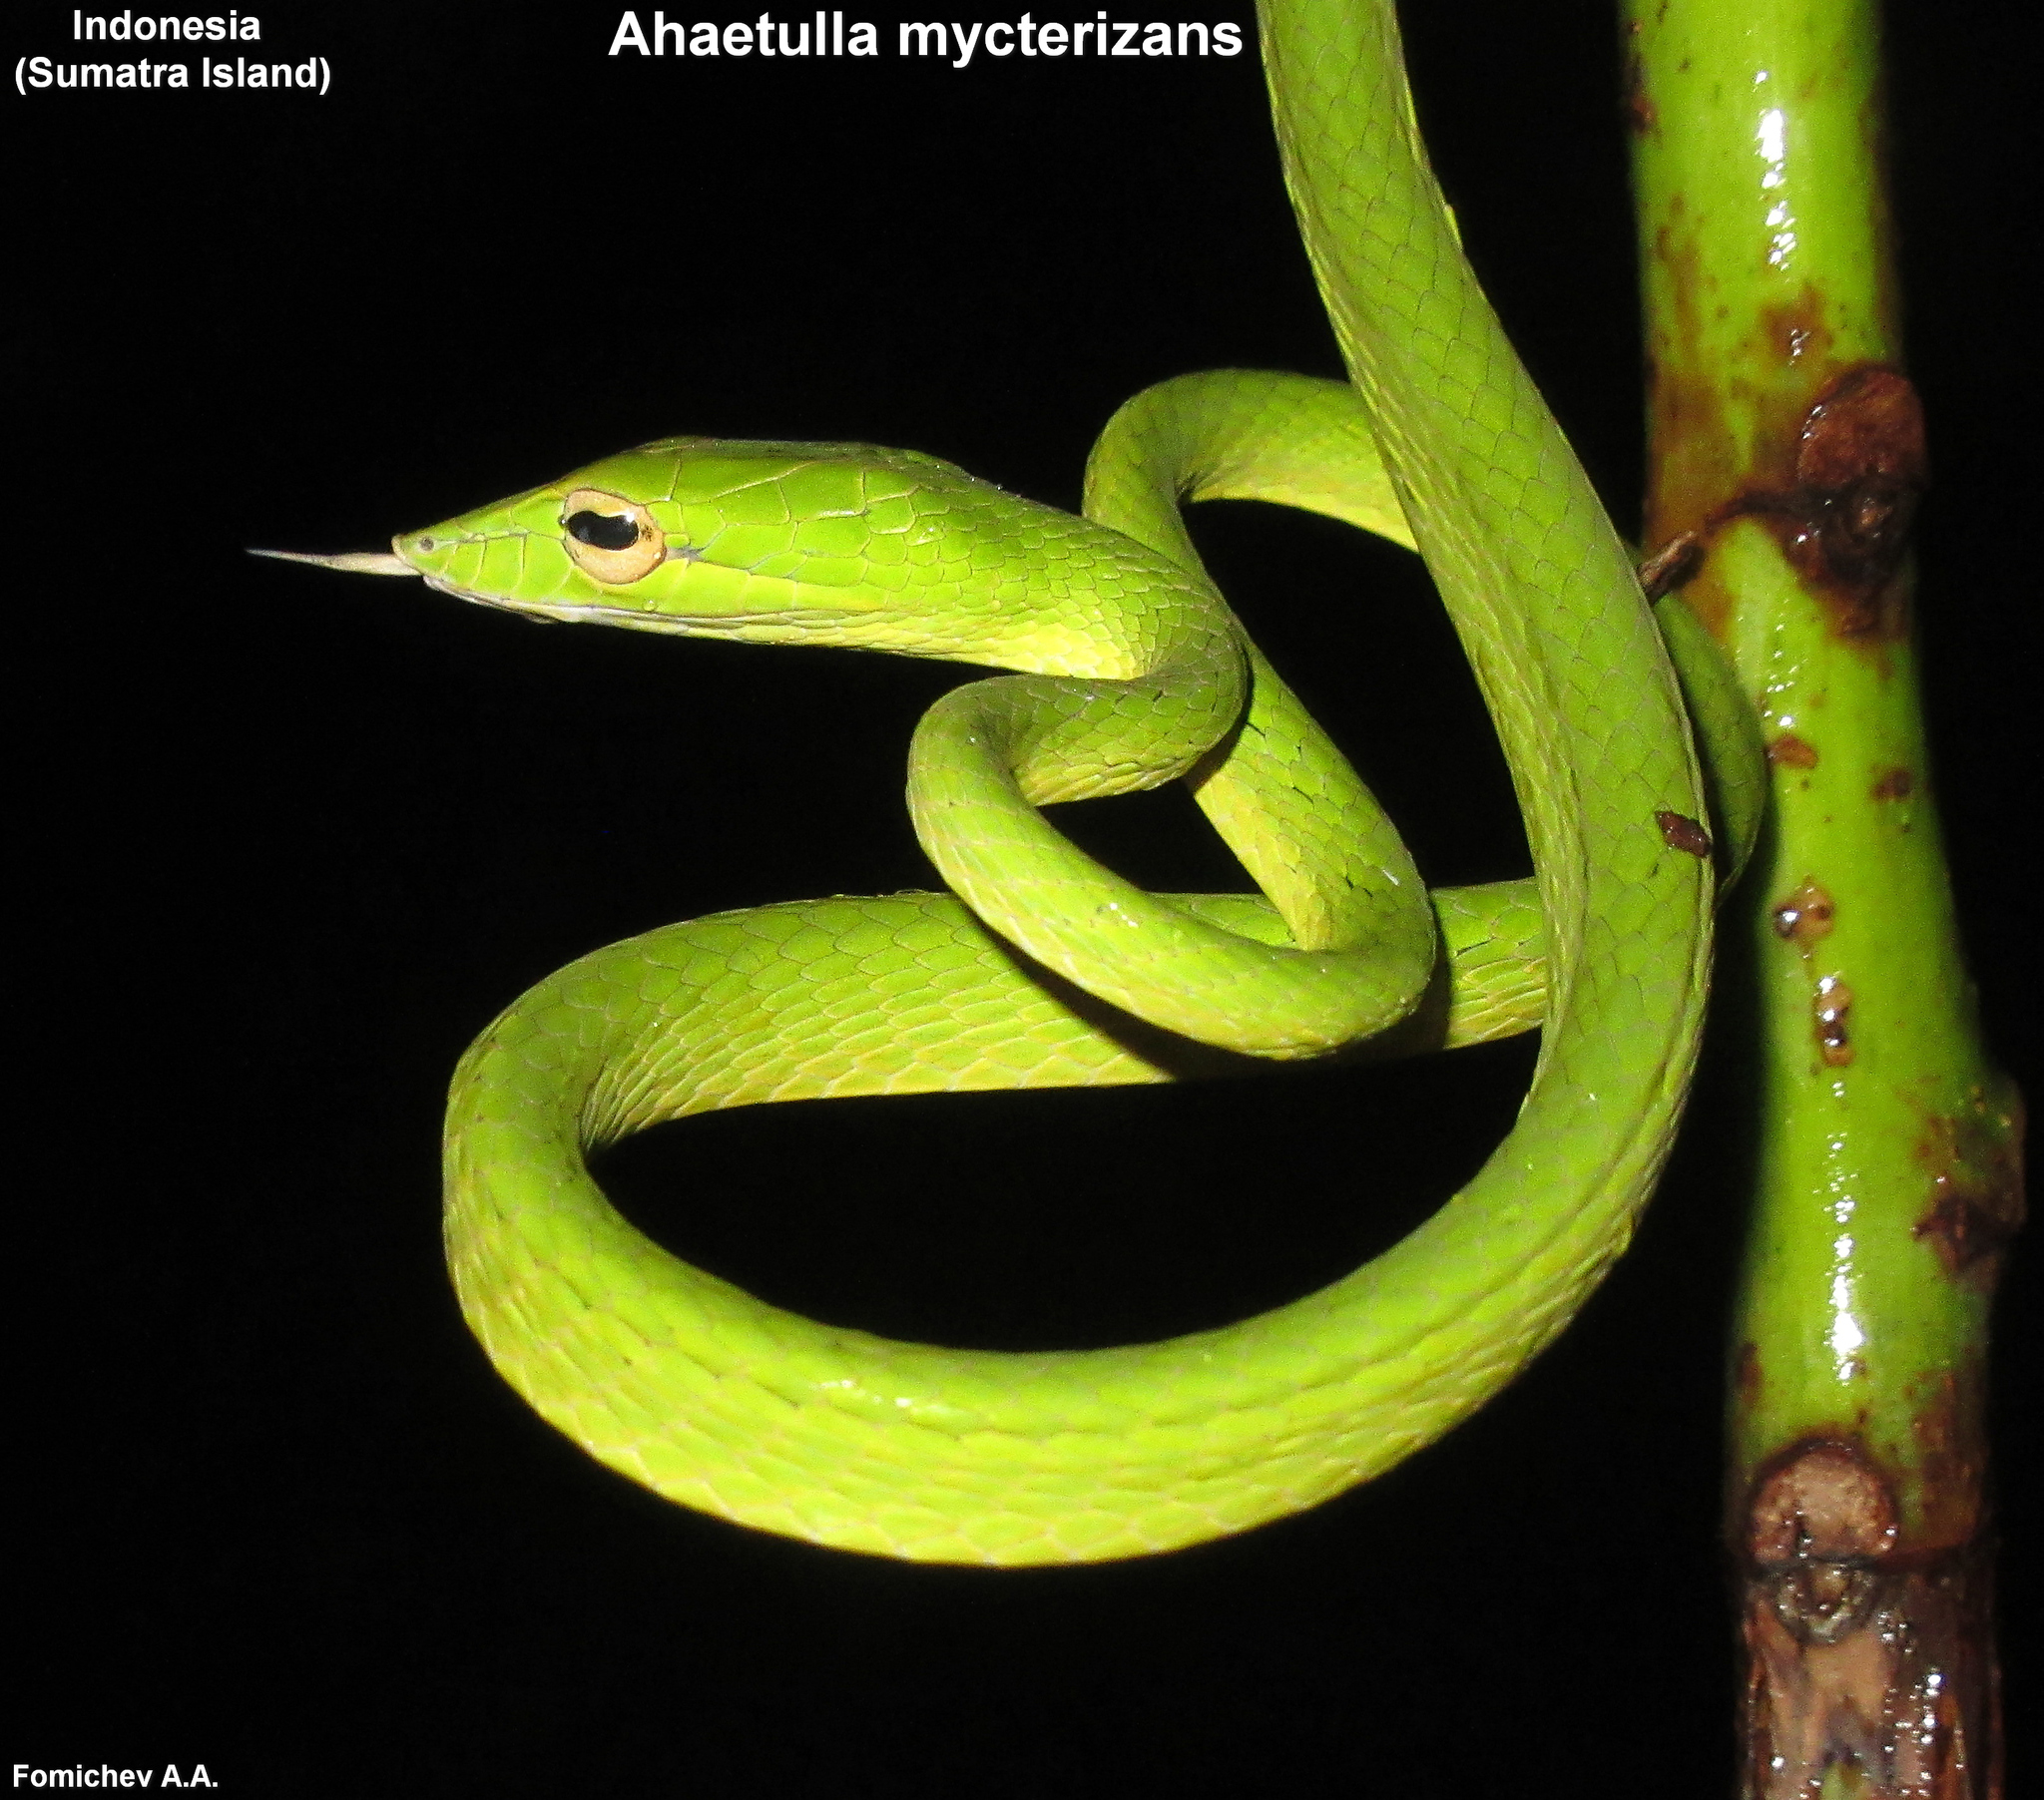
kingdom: Animalia
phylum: Chordata
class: Squamata
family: Colubridae
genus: Ahaetulla
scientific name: Ahaetulla mycterizans
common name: Malayan whip snake
